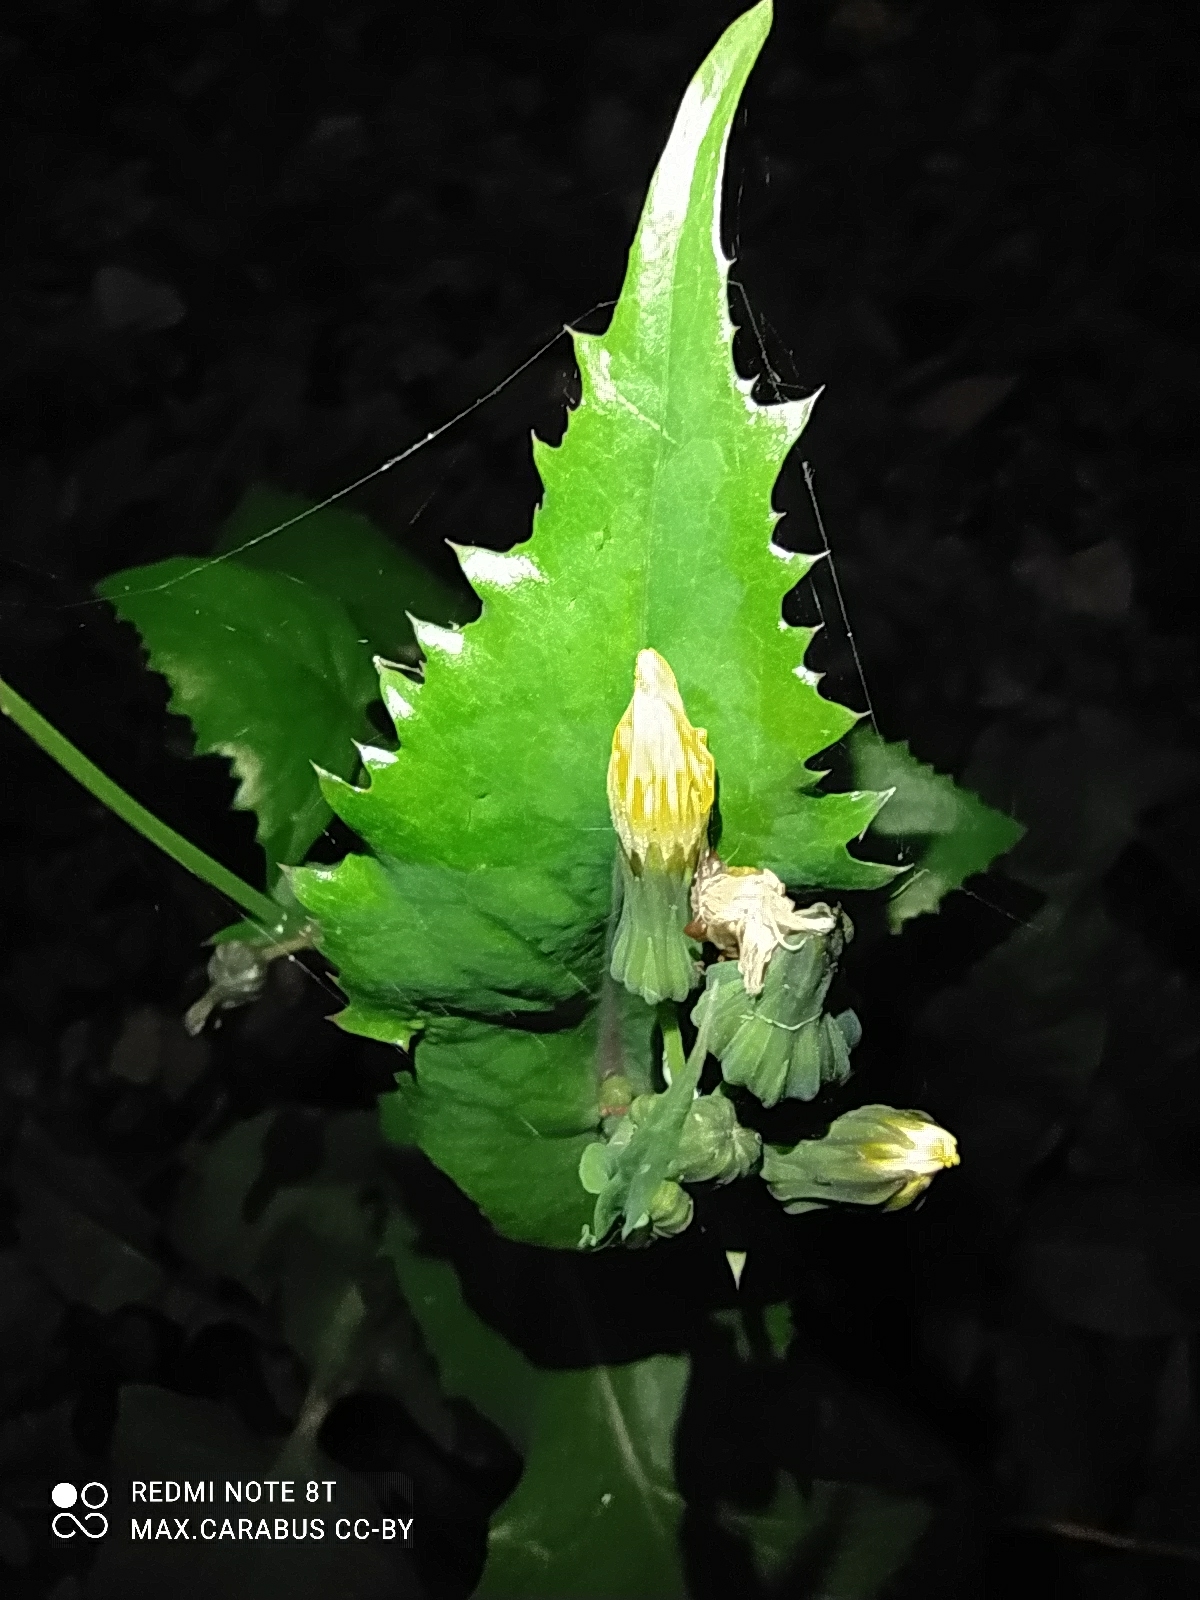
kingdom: Plantae
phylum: Tracheophyta
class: Magnoliopsida
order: Asterales
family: Asteraceae
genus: Sonchus
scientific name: Sonchus oleraceus
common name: Common sowthistle
